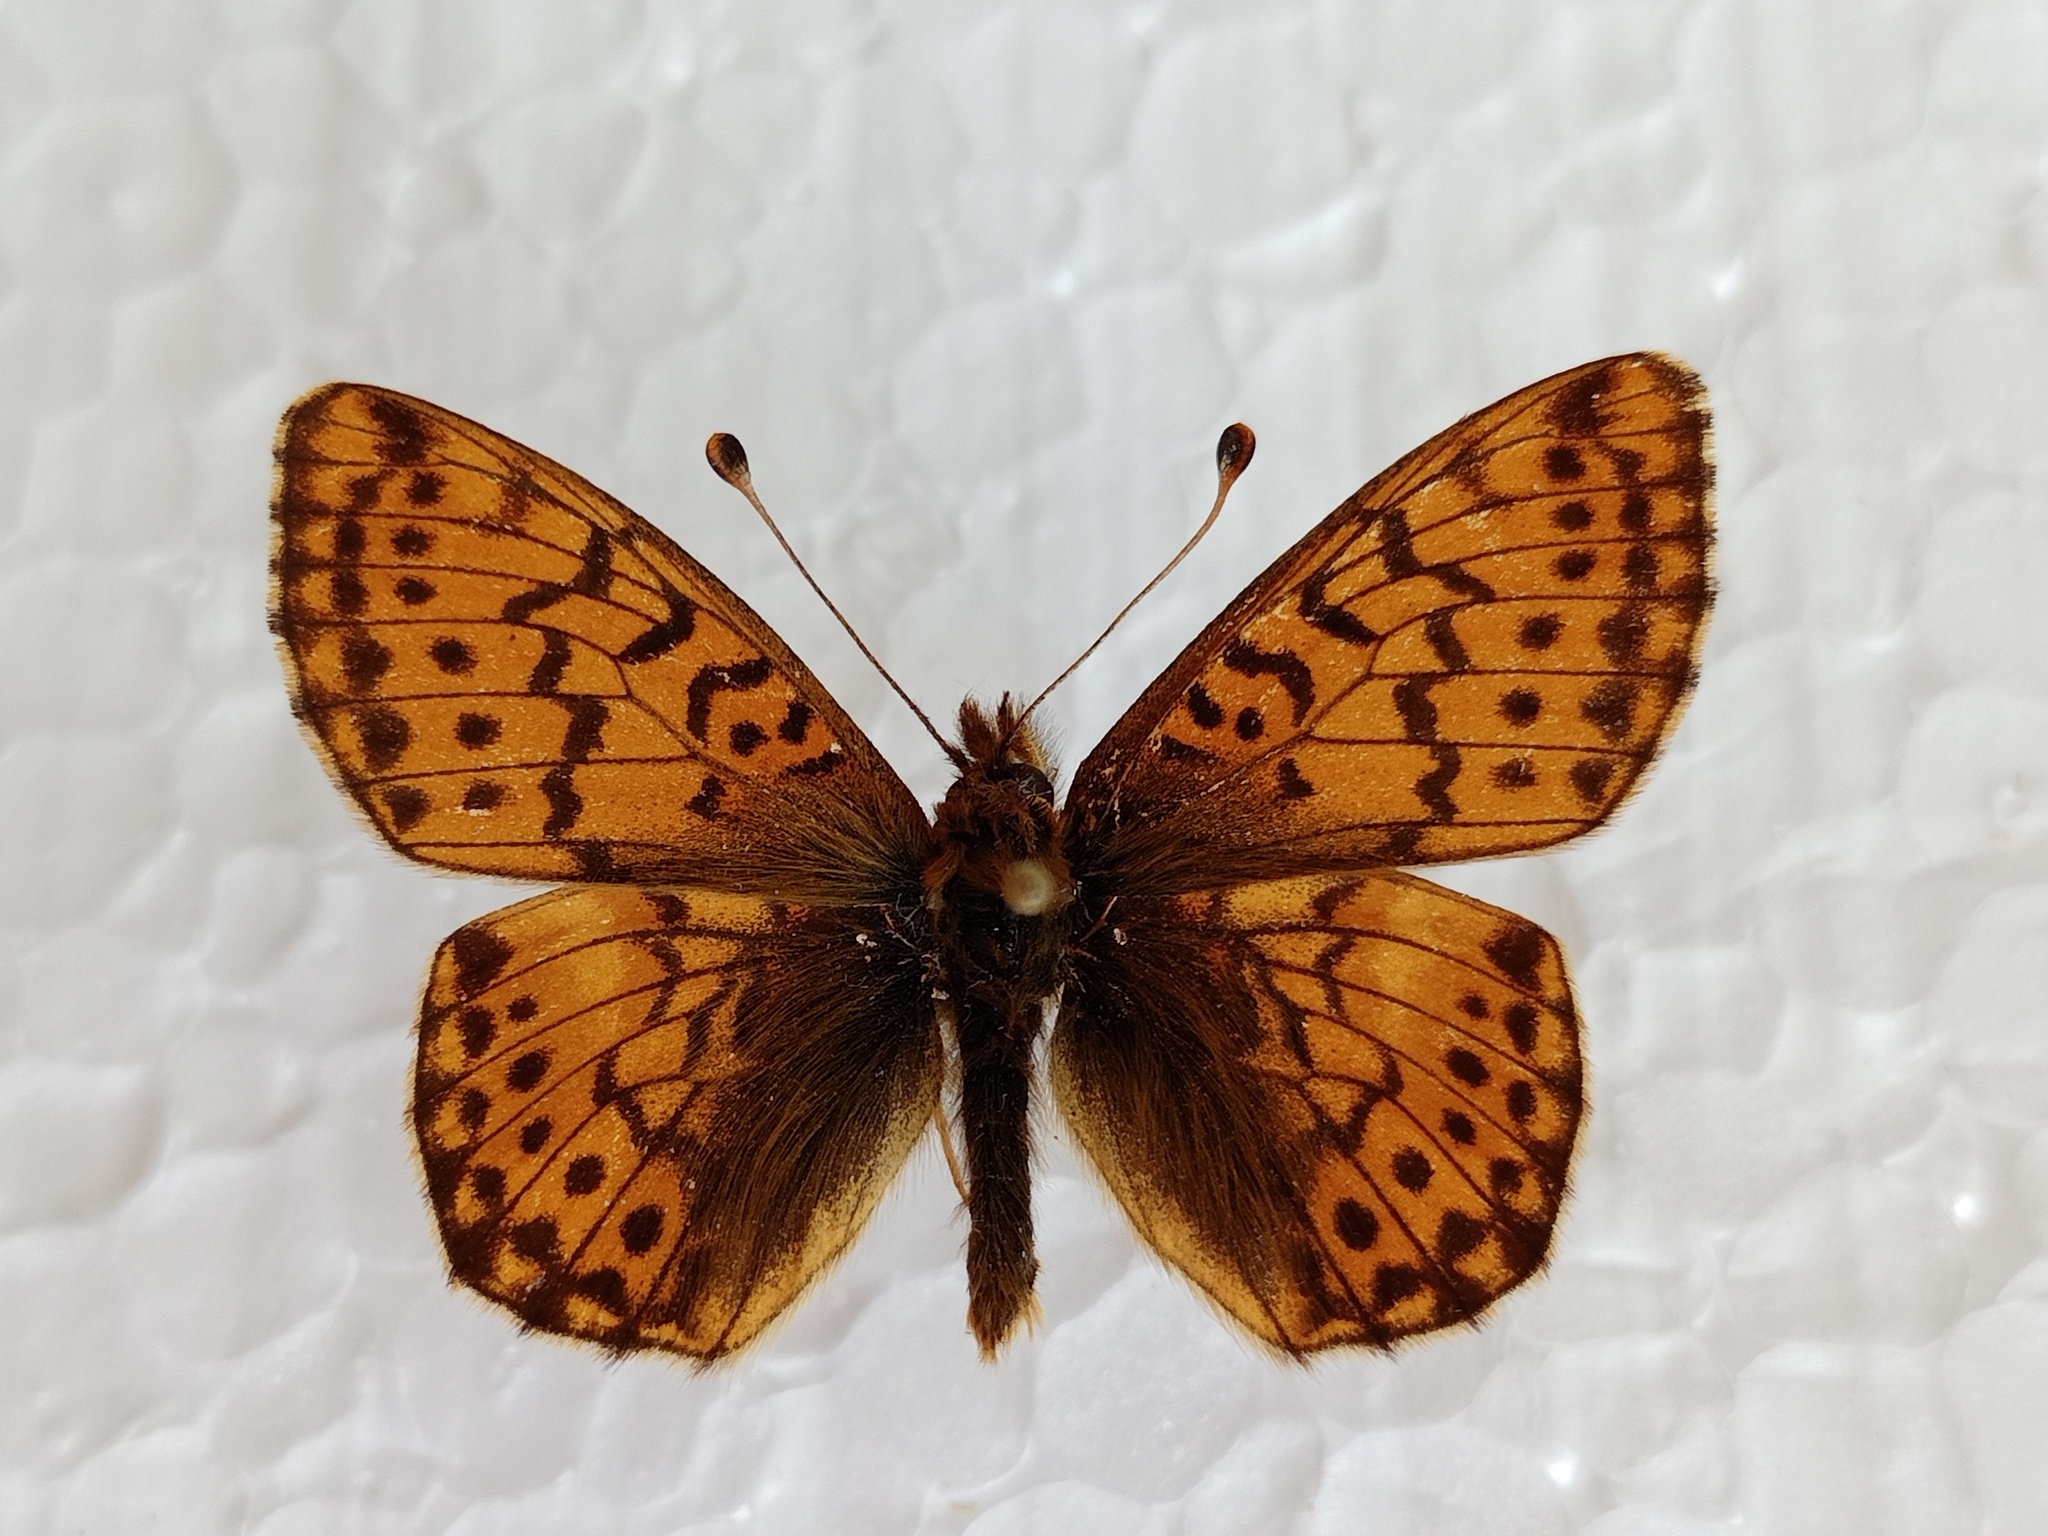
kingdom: Animalia
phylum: Arthropoda
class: Insecta
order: Lepidoptera
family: Nymphalidae
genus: Boloria
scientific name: Boloria pales
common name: Shepherd's fritillary
